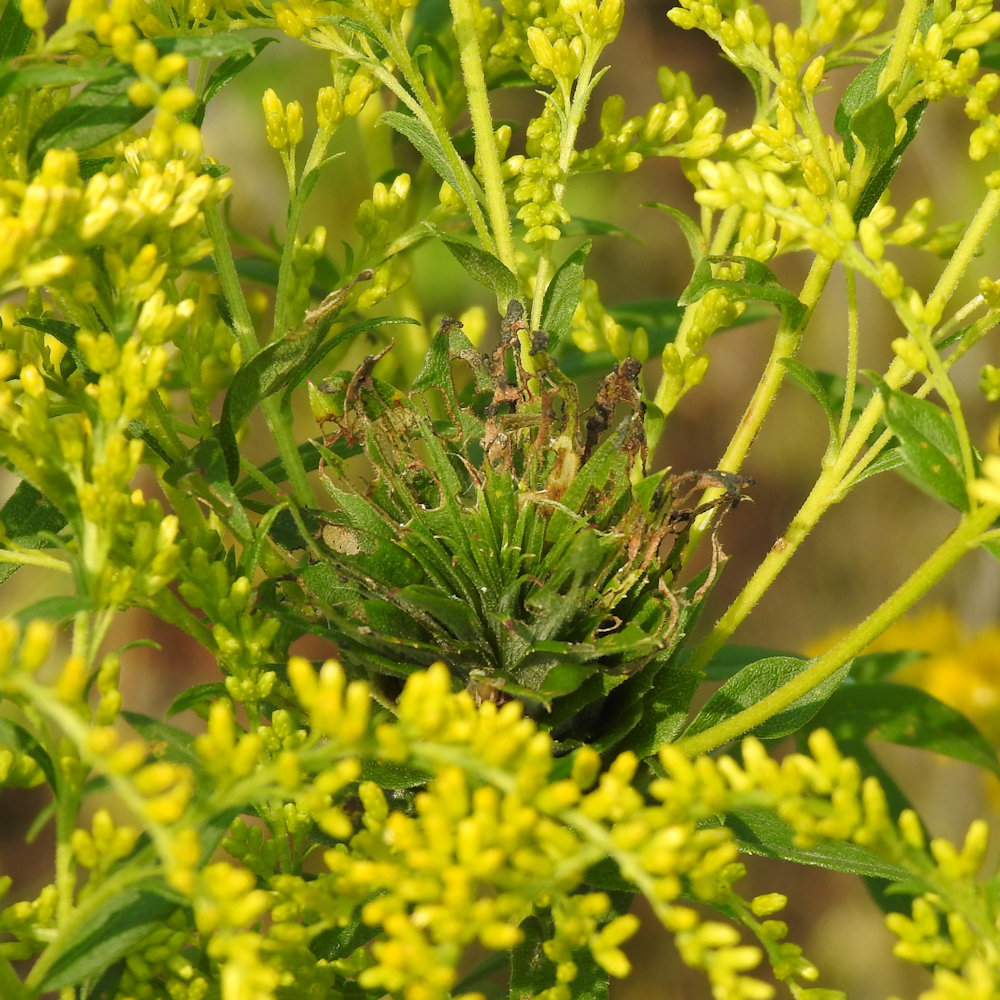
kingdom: Animalia
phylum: Arthropoda
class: Insecta
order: Diptera
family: Cecidomyiidae
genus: Rhopalomyia
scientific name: Rhopalomyia solidaginis
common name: Goldenrod bunch gall midge
